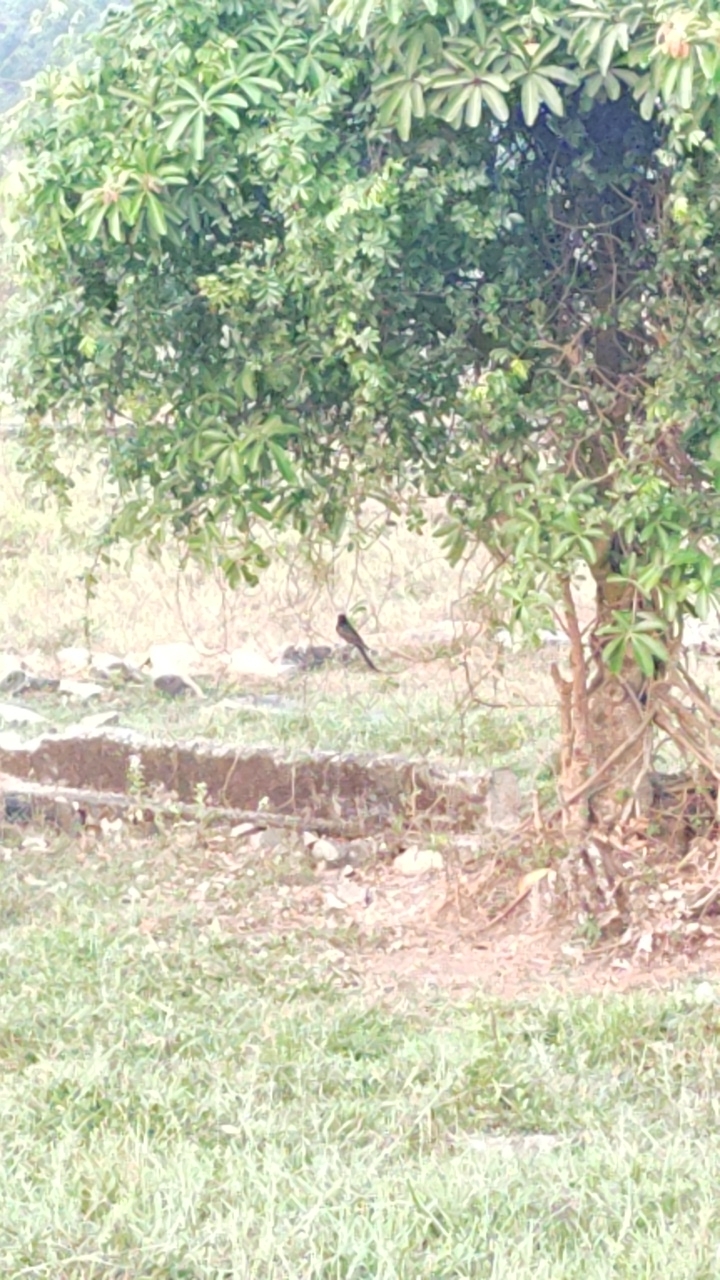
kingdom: Animalia
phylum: Chordata
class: Aves
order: Passeriformes
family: Dicruridae
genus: Dicrurus
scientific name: Dicrurus macrocercus
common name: Black drongo
